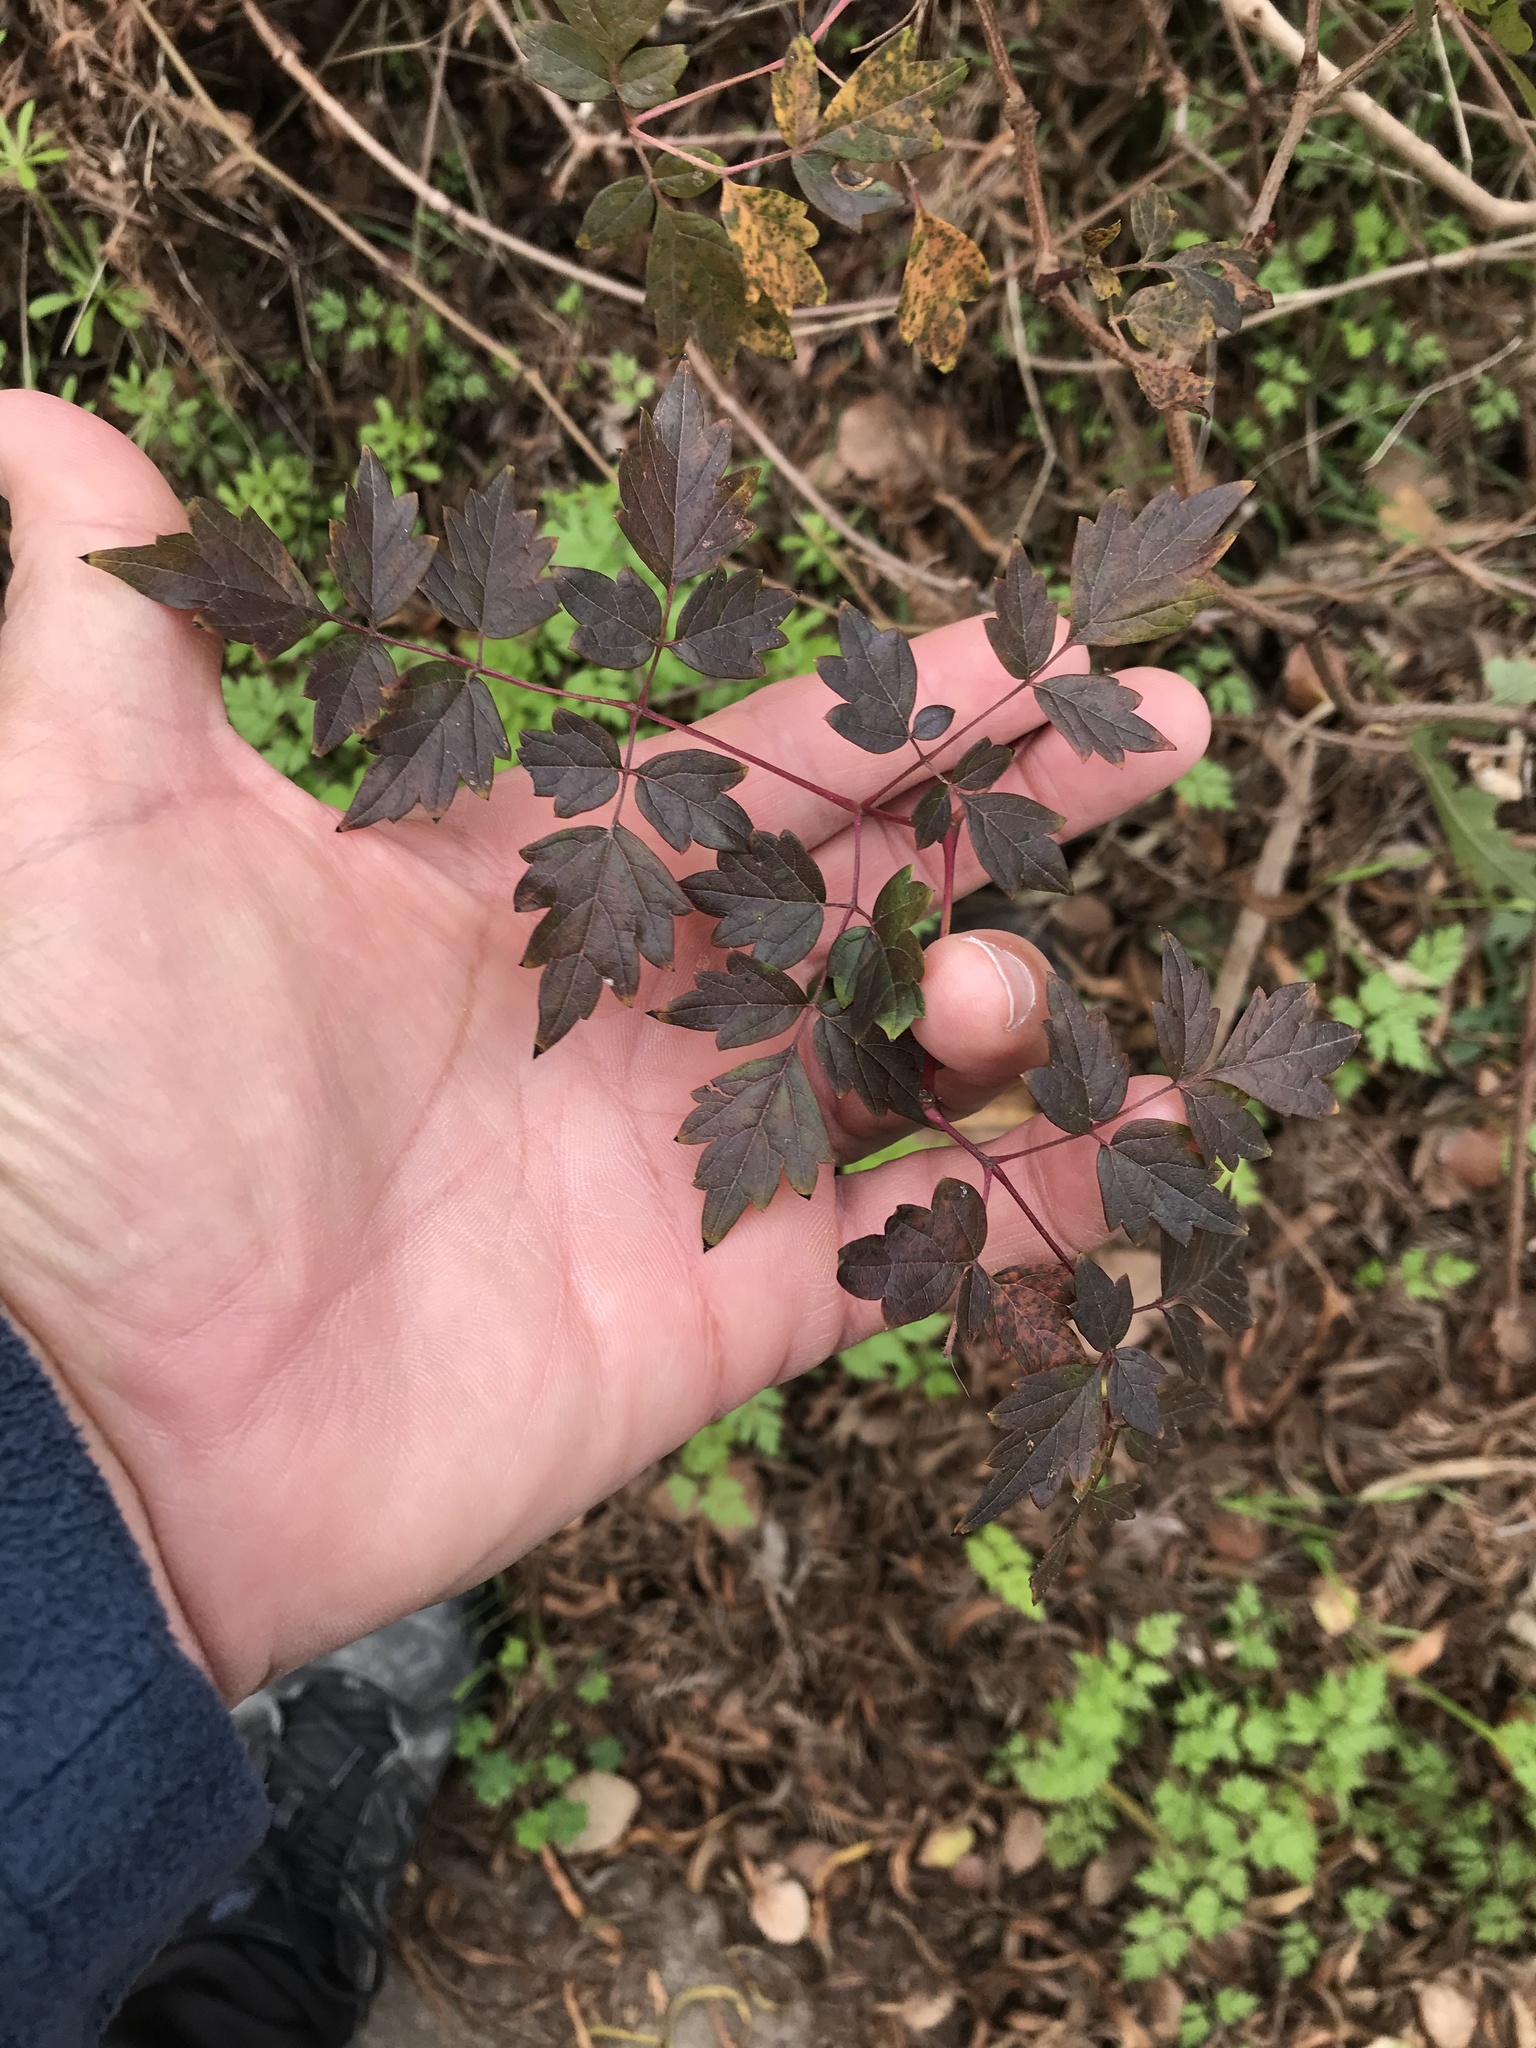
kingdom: Plantae
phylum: Tracheophyta
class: Magnoliopsida
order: Vitales
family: Vitaceae
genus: Nekemias
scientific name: Nekemias arborea
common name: Peppervine
